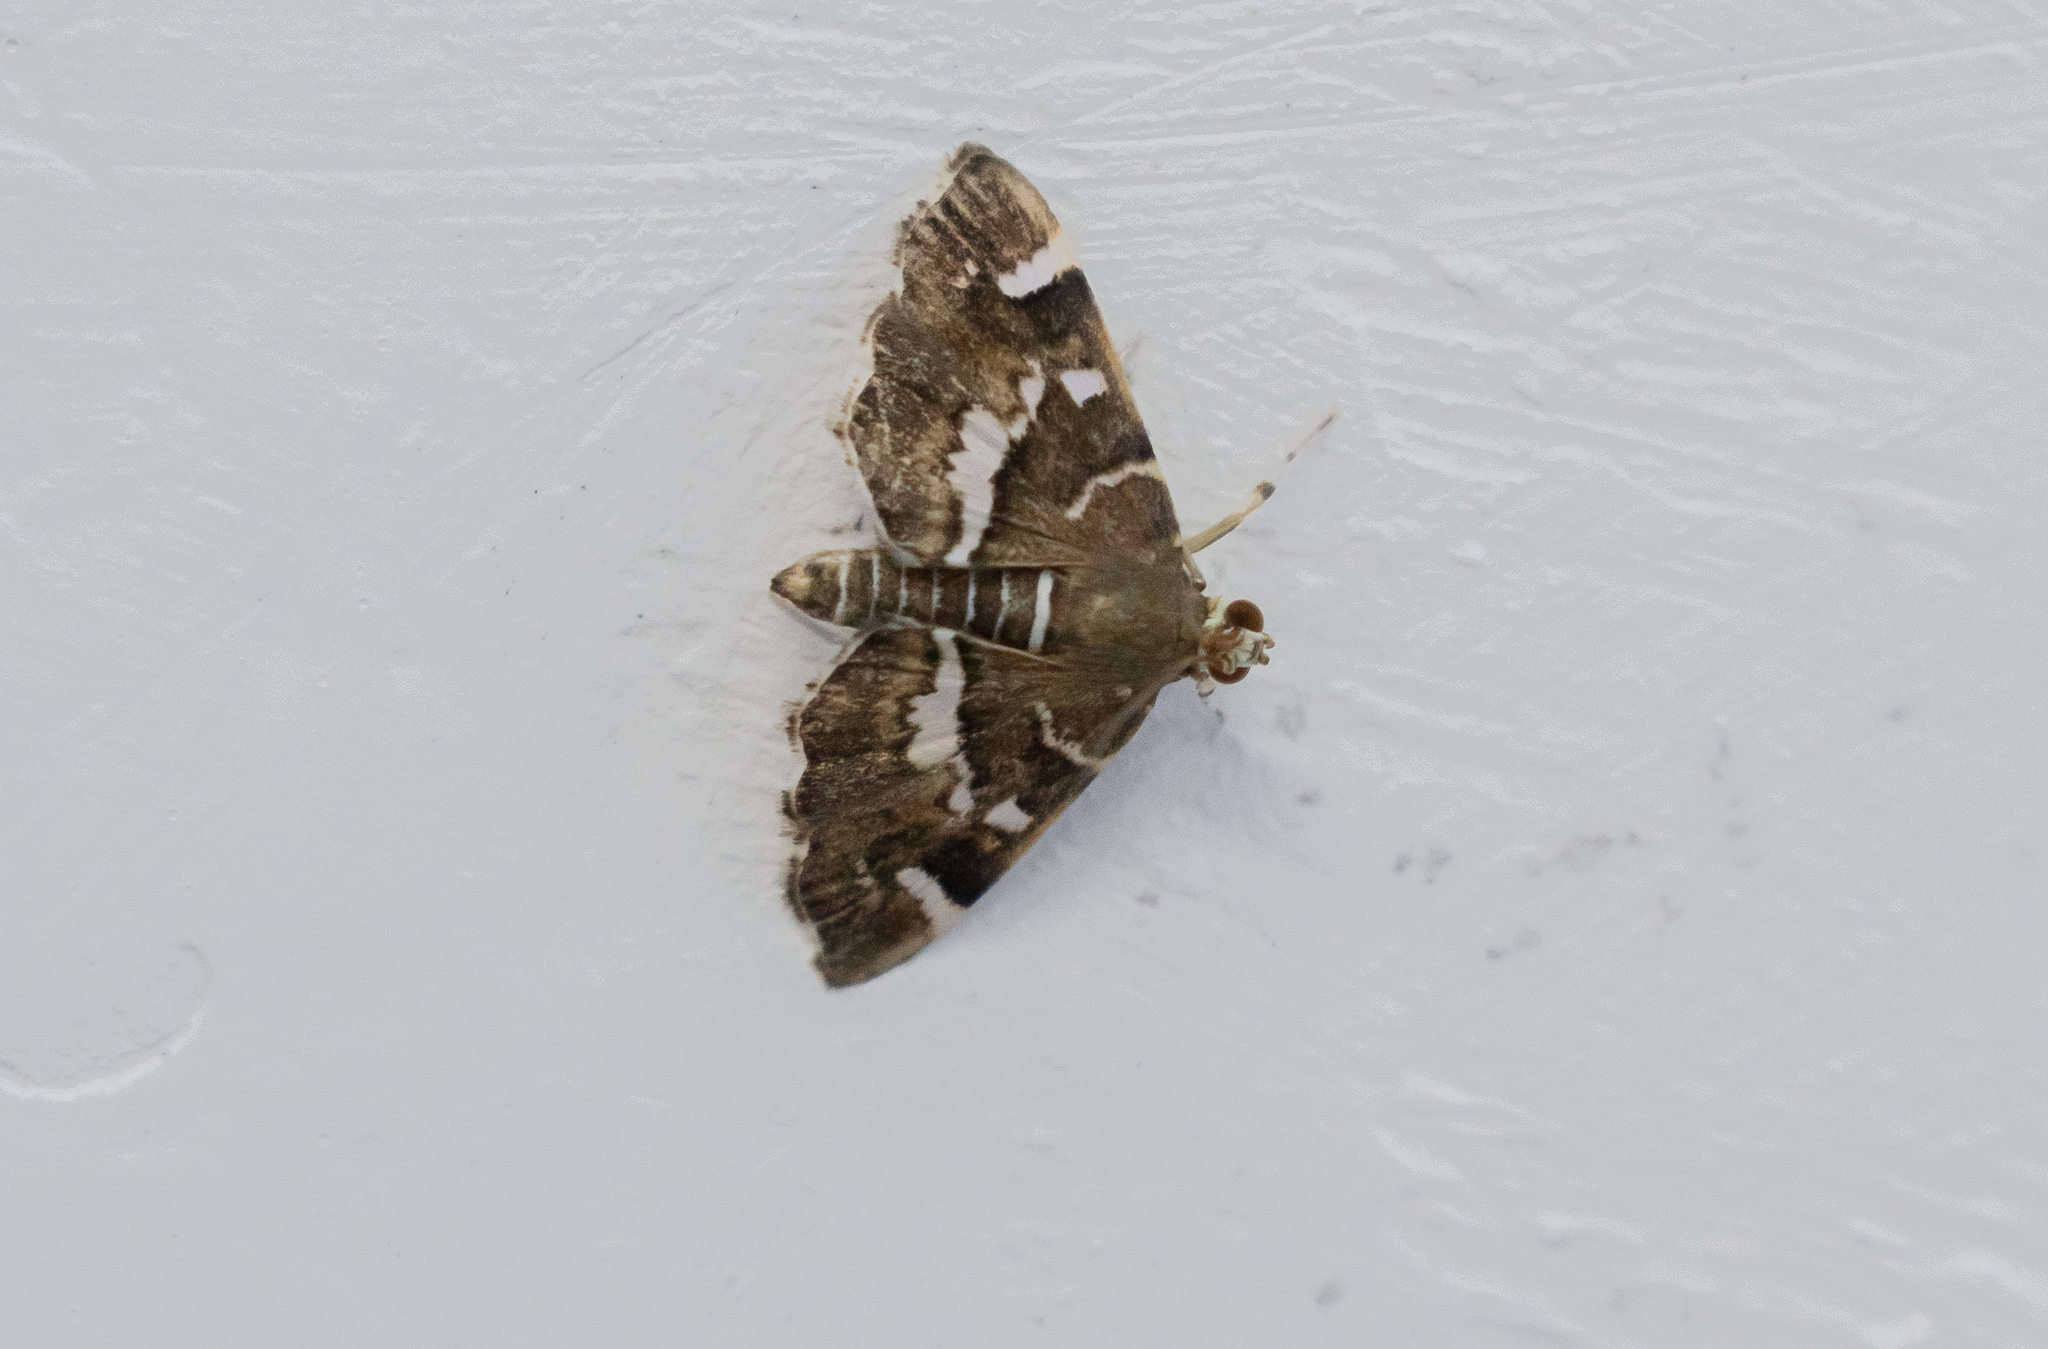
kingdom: Animalia
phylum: Arthropoda
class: Insecta
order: Lepidoptera
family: Crambidae
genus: Hymenia
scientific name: Hymenia perspectalis
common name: Spotted beet webworm
